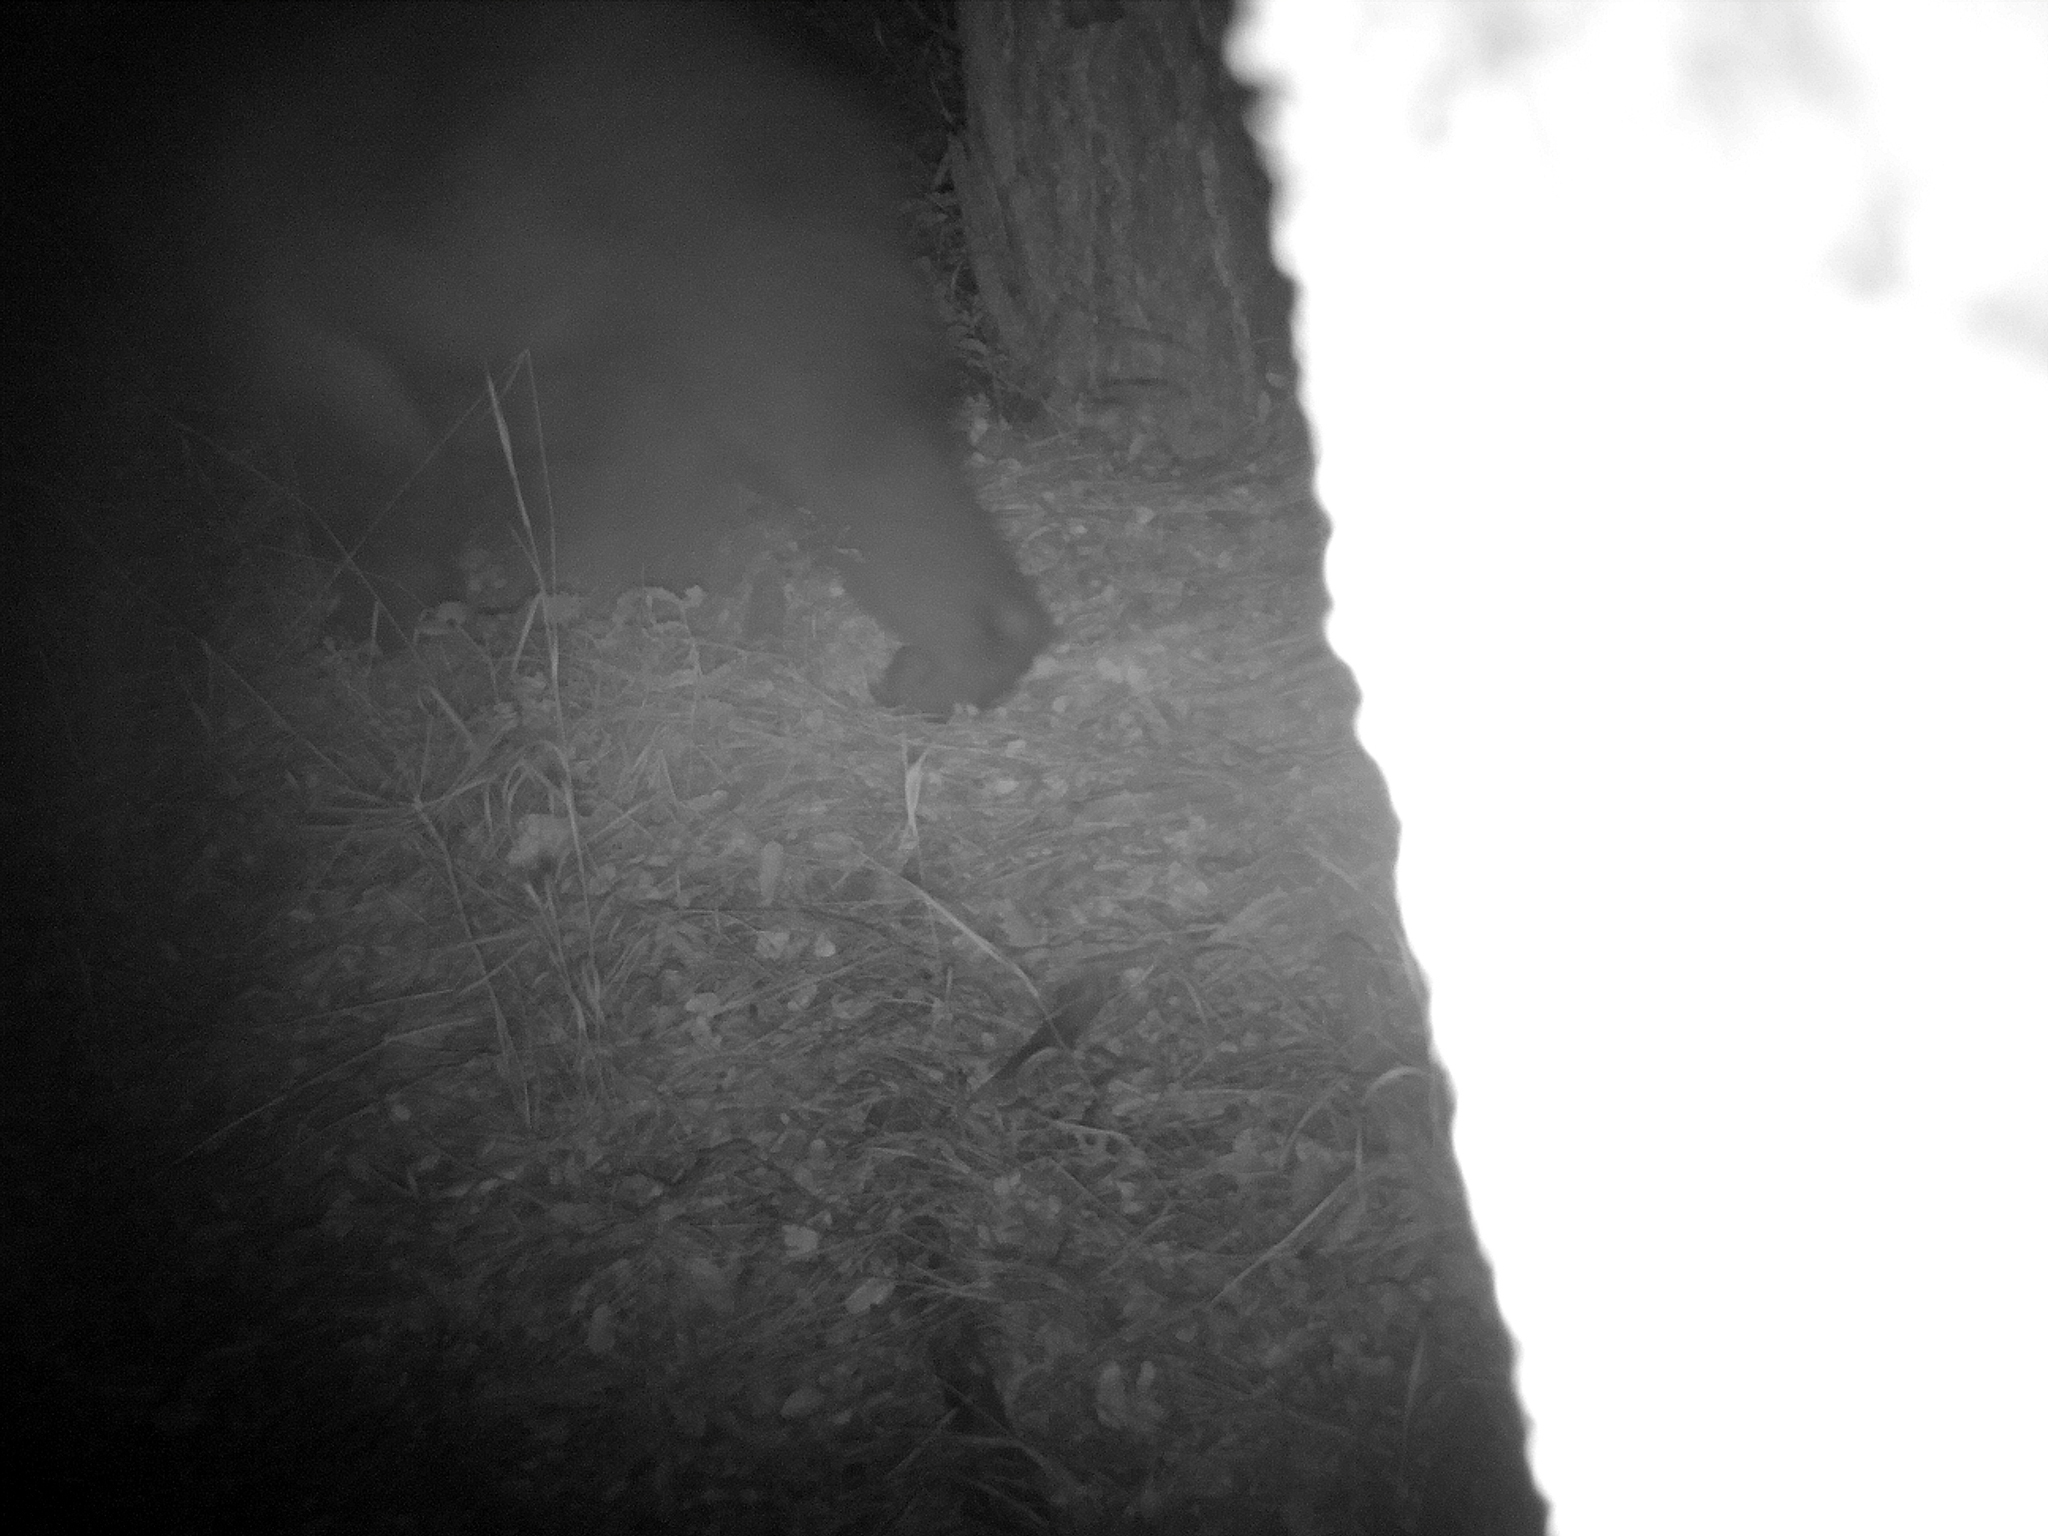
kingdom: Animalia
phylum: Chordata
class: Mammalia
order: Carnivora
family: Ursidae
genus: Ursus
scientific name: Ursus americanus
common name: American black bear
